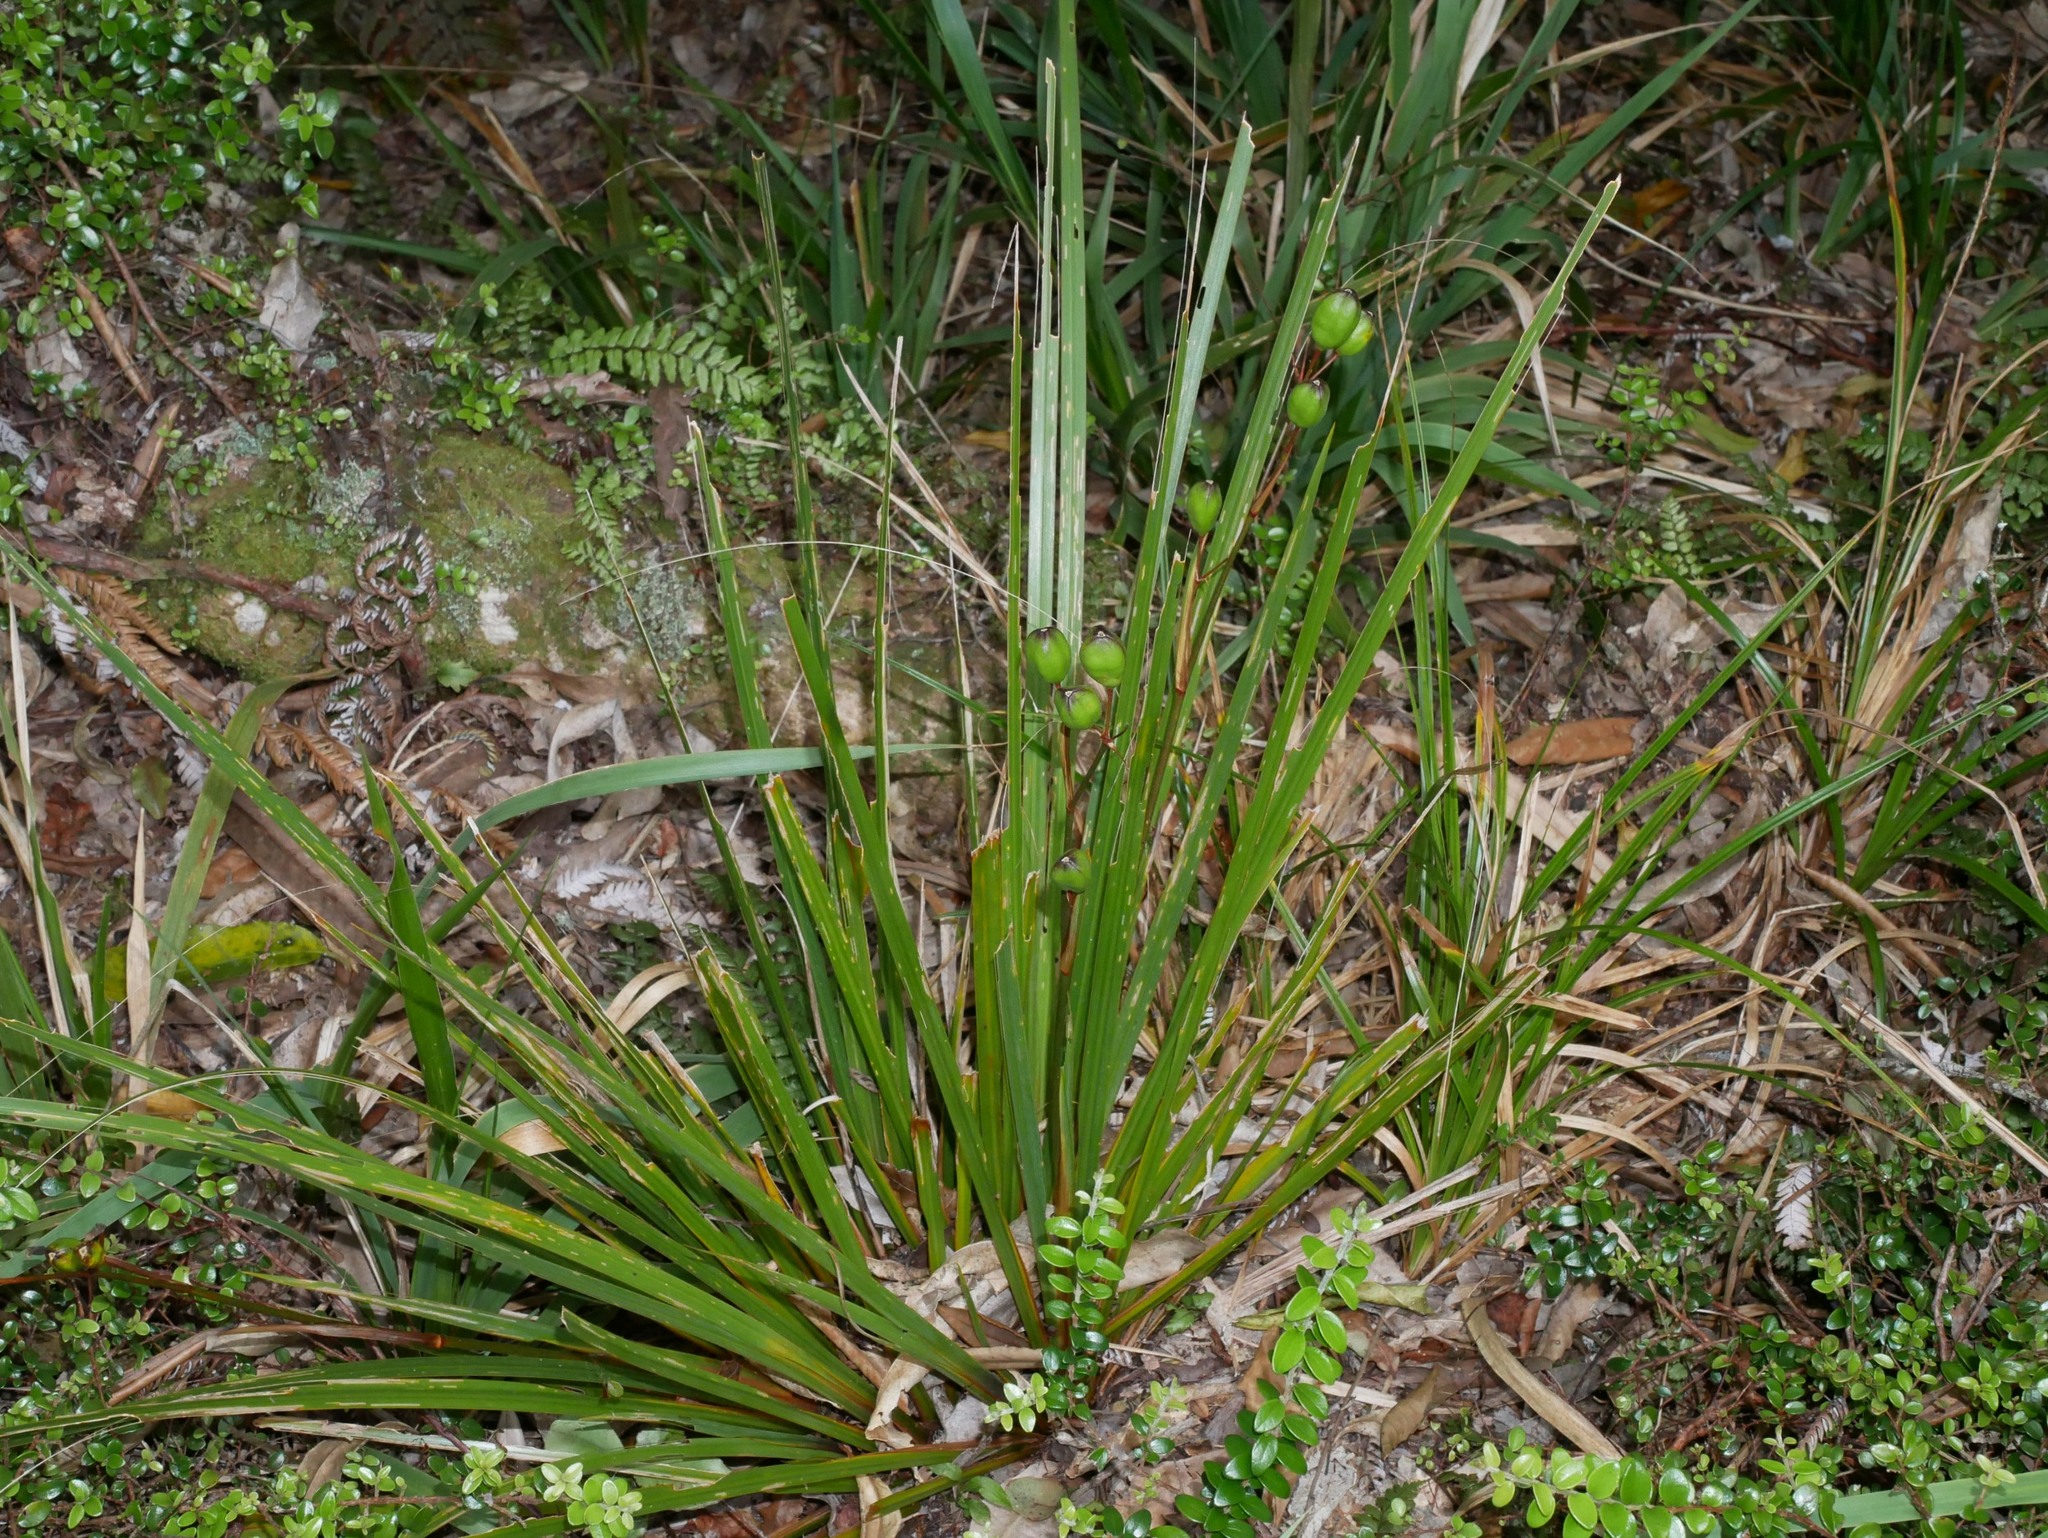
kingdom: Plantae
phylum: Tracheophyta
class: Liliopsida
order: Asparagales
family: Iridaceae
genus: Libertia
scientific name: Libertia ixioides
